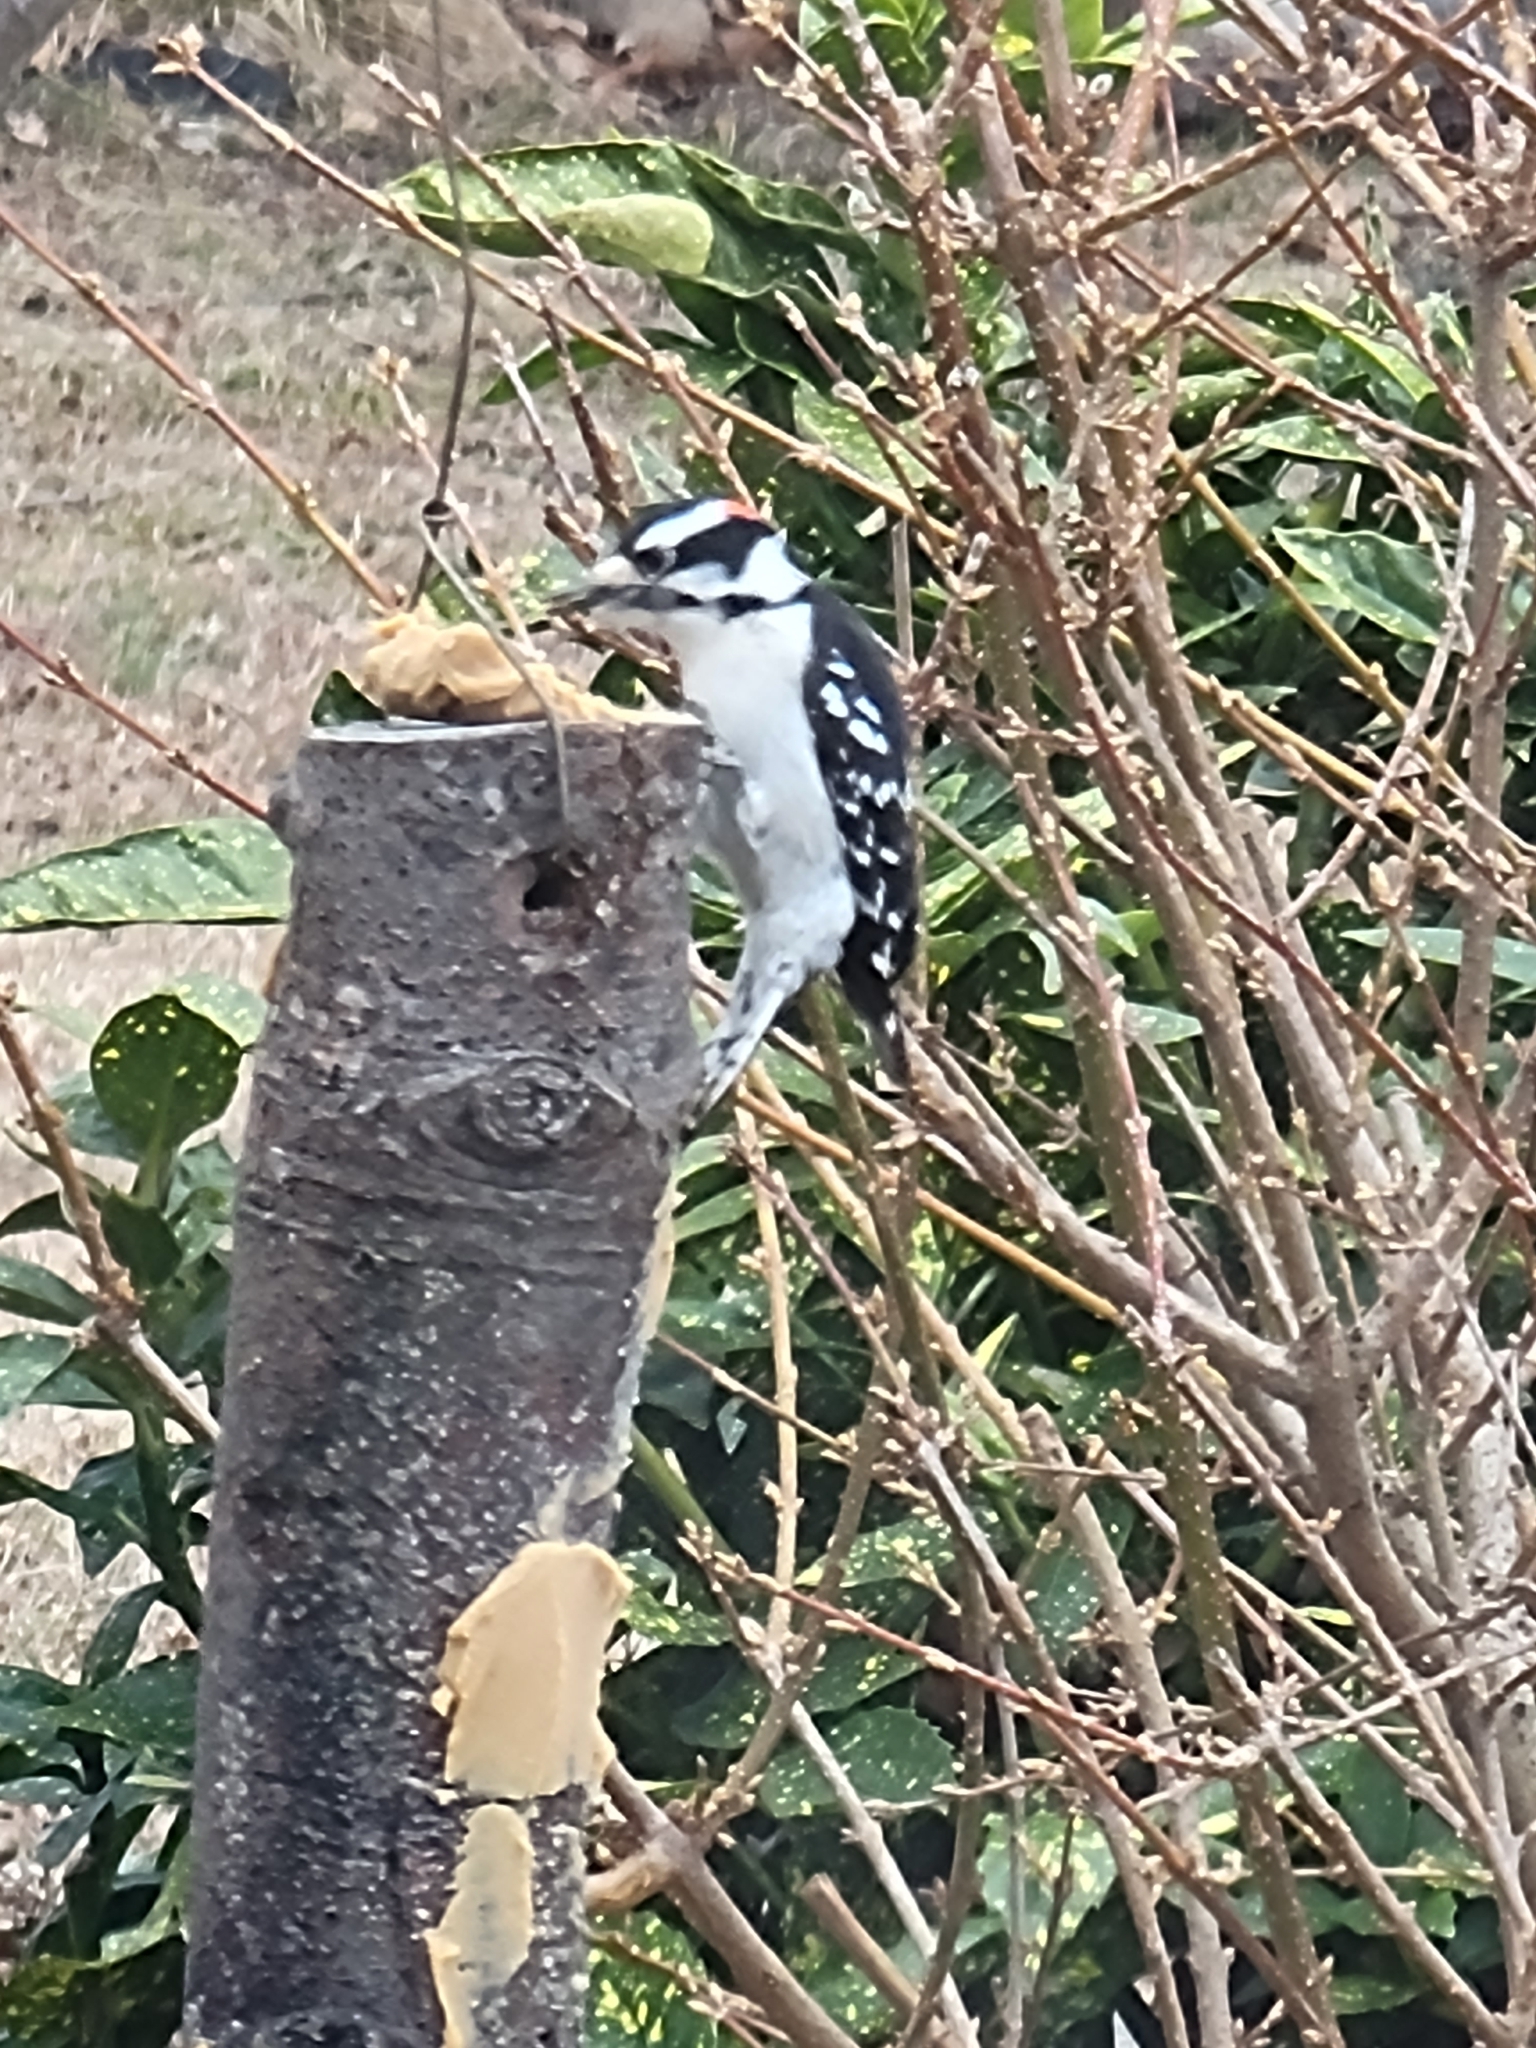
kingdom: Animalia
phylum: Chordata
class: Aves
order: Piciformes
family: Picidae
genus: Dryobates
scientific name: Dryobates pubescens
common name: Downy woodpecker
